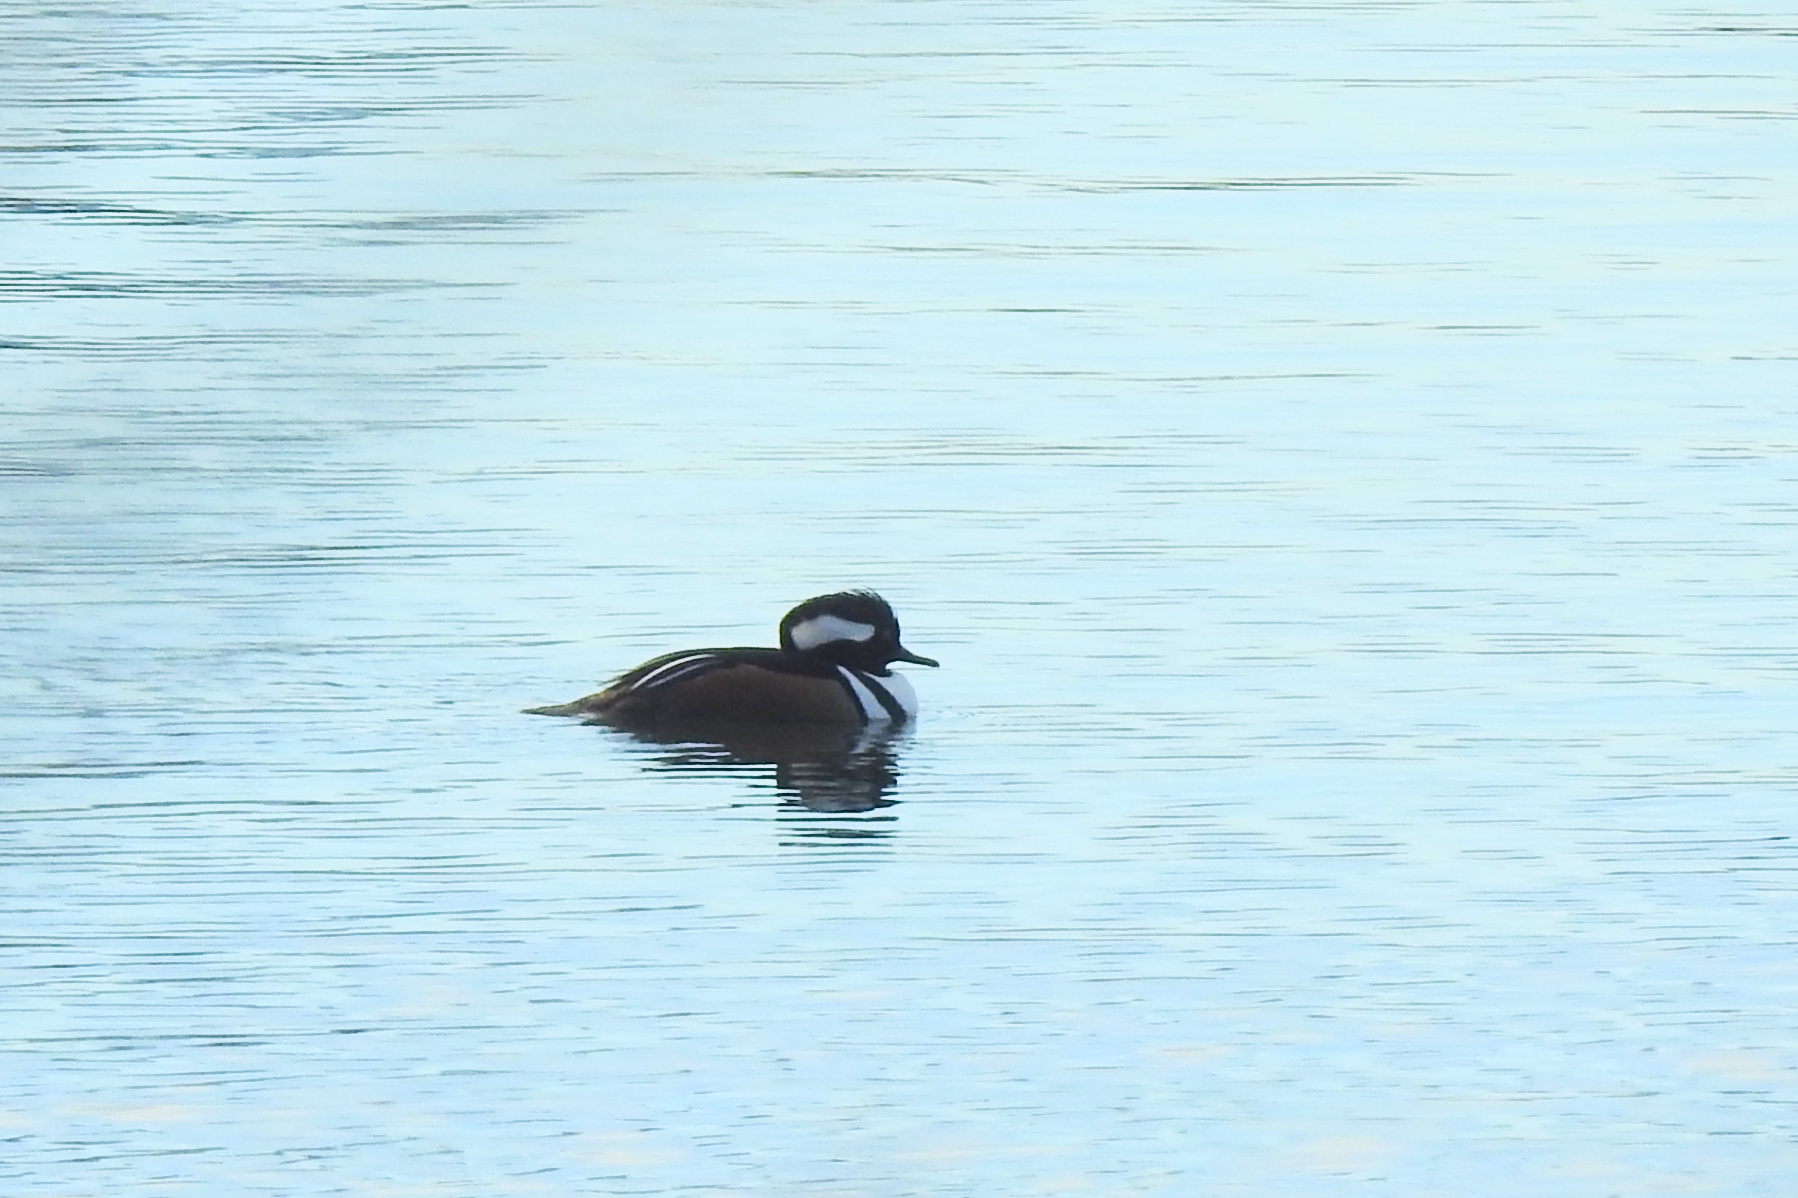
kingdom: Animalia
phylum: Chordata
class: Aves
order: Anseriformes
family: Anatidae
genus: Lophodytes
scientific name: Lophodytes cucullatus
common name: Hooded merganser
